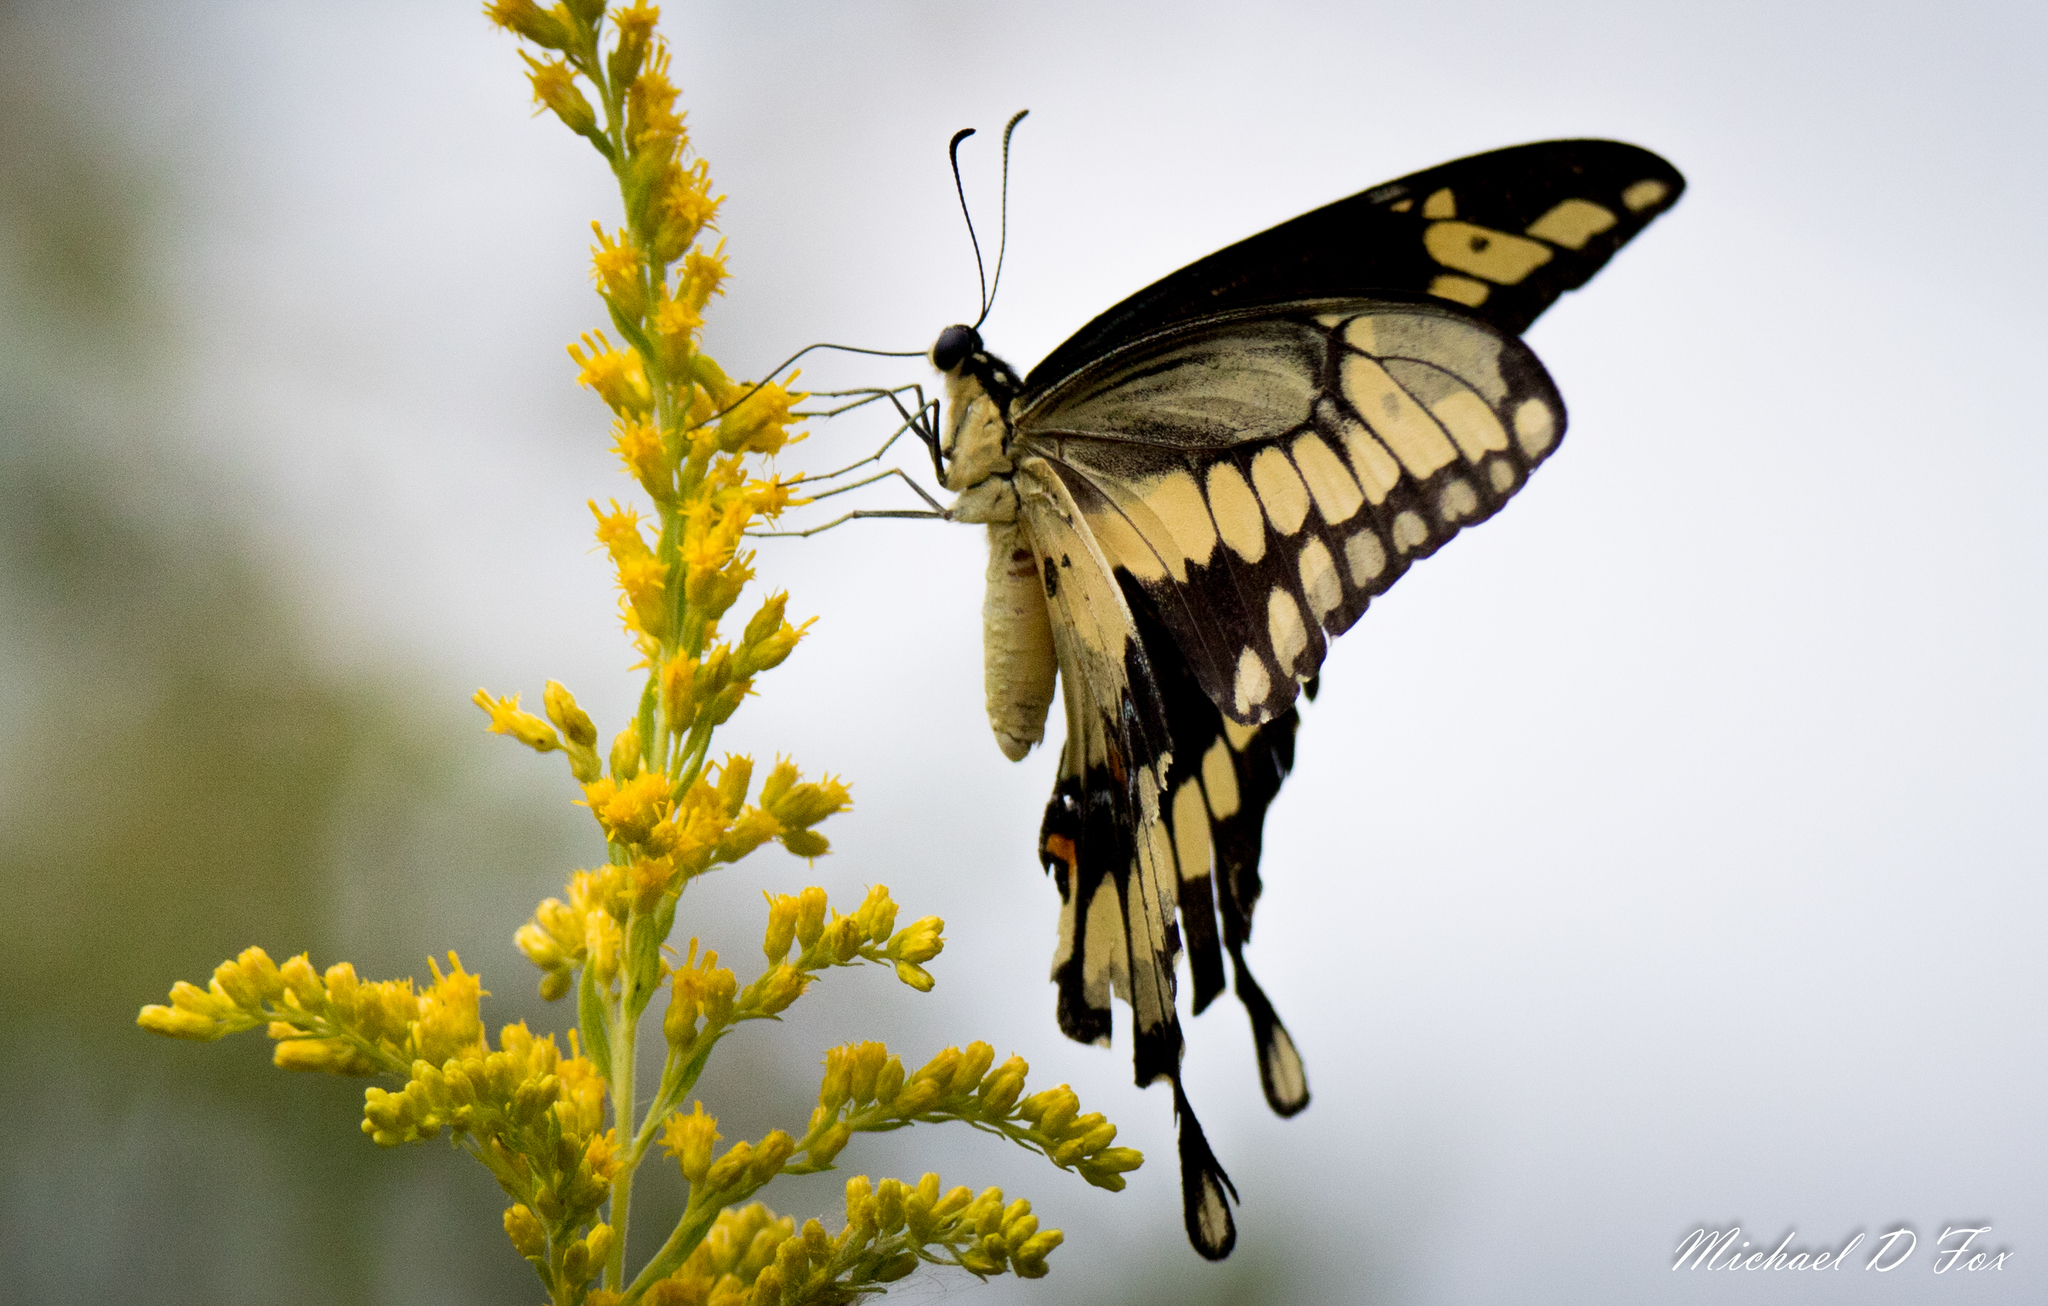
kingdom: Animalia
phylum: Arthropoda
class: Insecta
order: Lepidoptera
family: Papilionidae
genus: Papilio
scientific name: Papilio cresphontes
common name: Giant swallowtail
